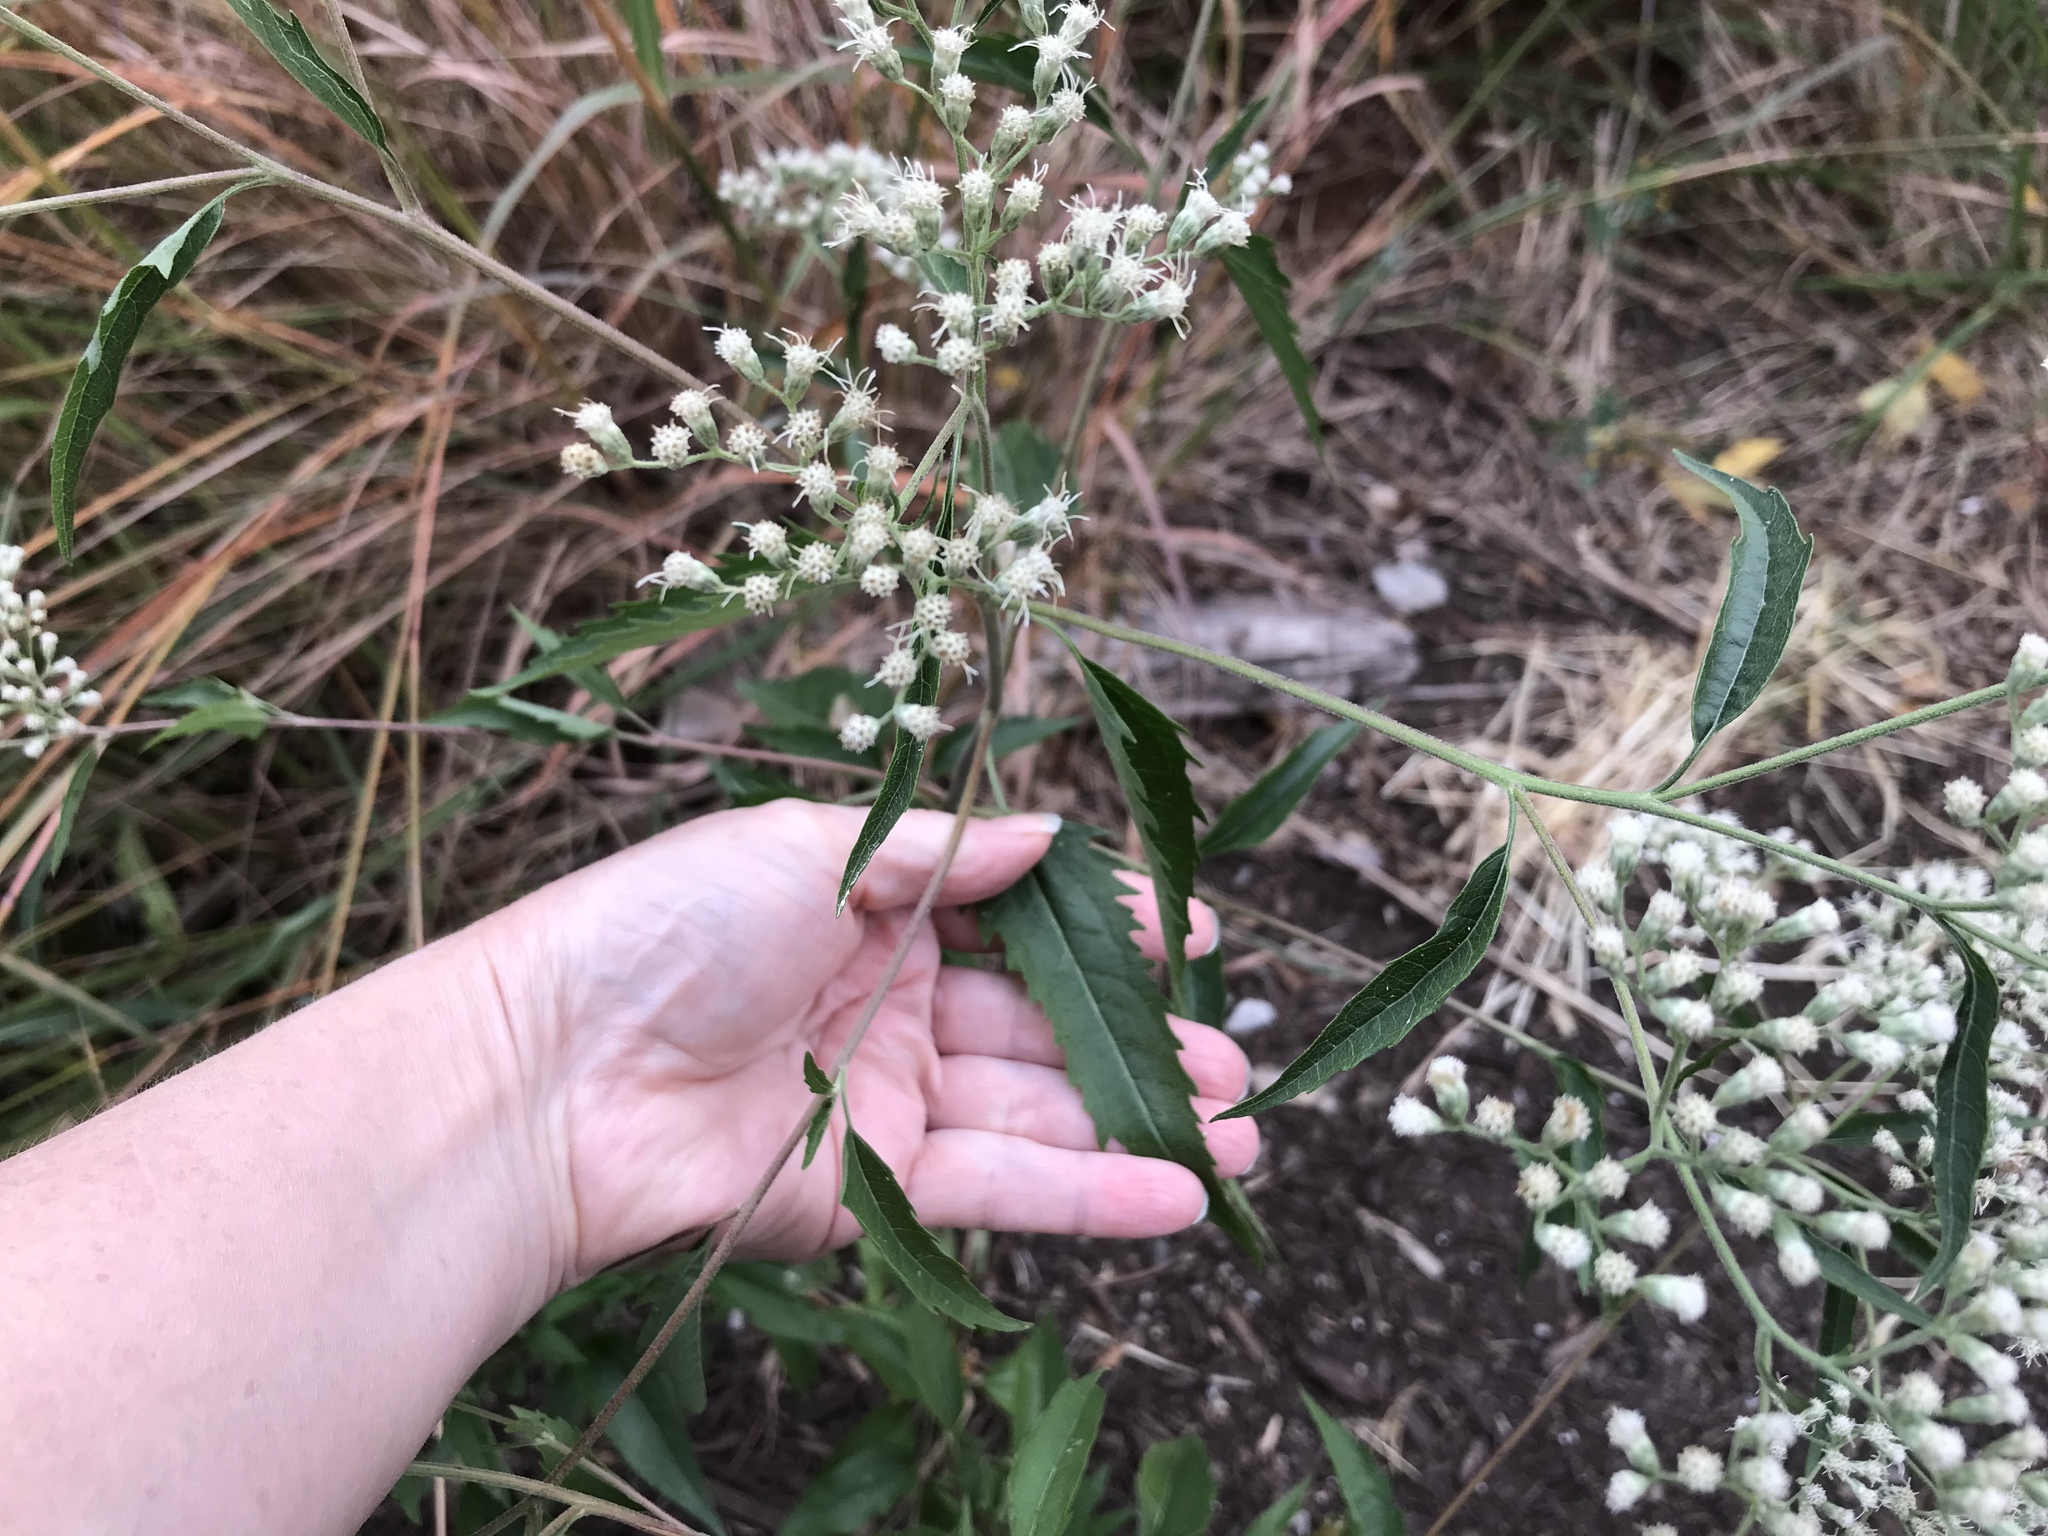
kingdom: Plantae
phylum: Tracheophyta
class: Magnoliopsida
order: Asterales
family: Asteraceae
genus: Eupatorium
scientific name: Eupatorium serotinum
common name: Late boneset
